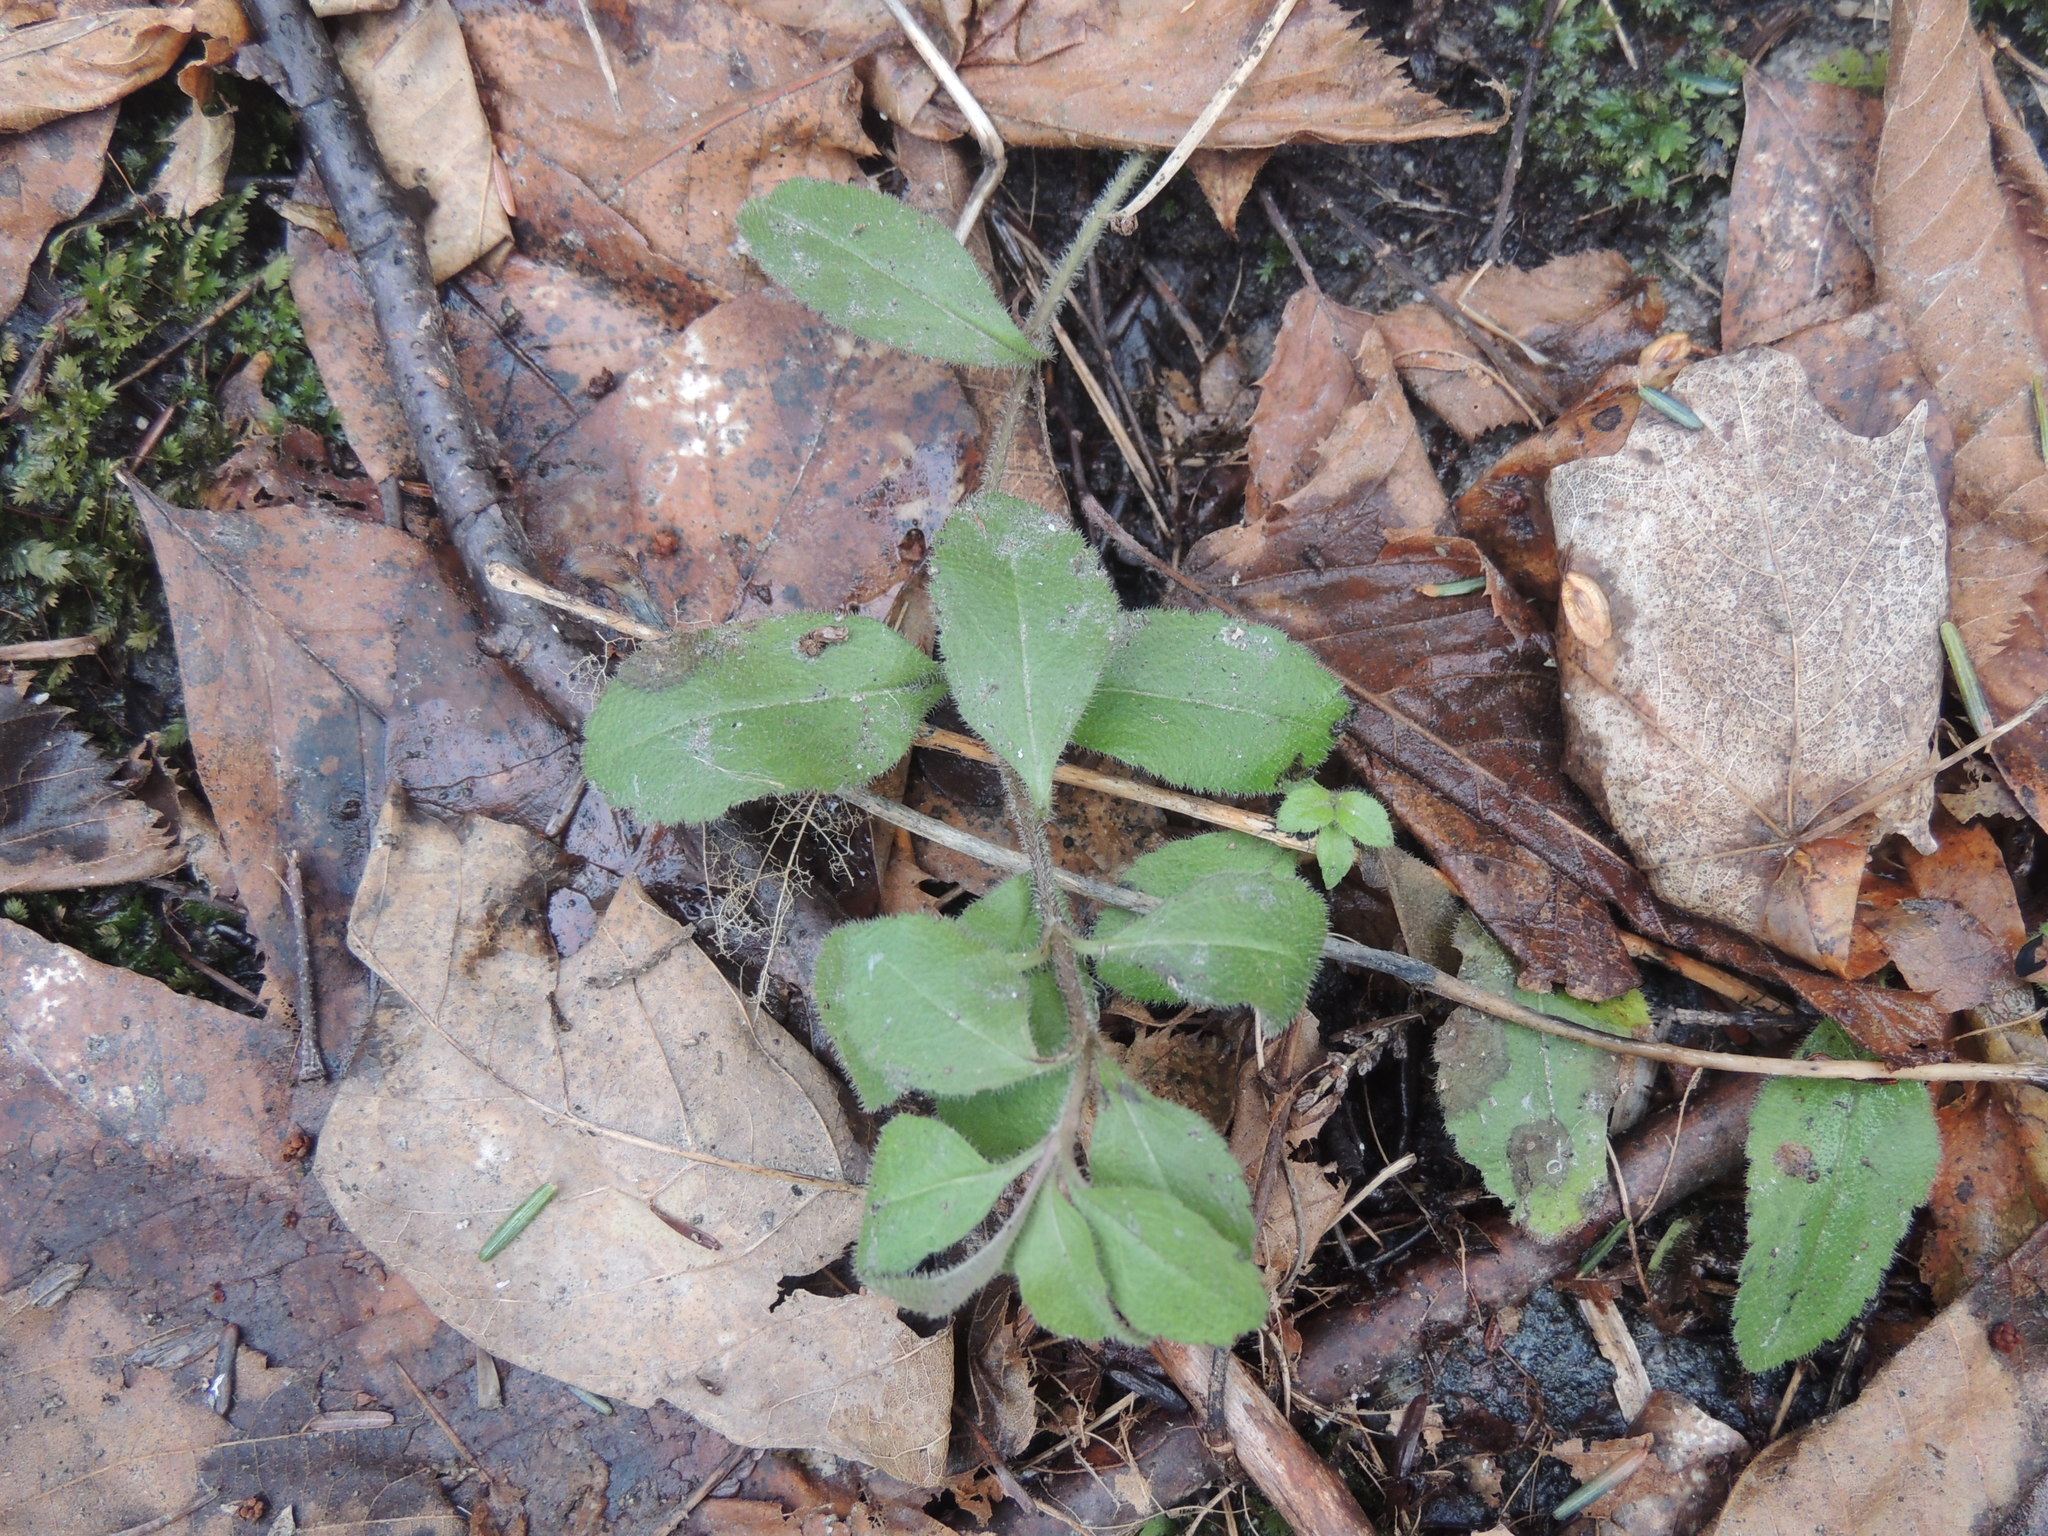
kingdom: Plantae
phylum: Tracheophyta
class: Magnoliopsida
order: Lamiales
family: Plantaginaceae
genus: Veronica
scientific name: Veronica officinalis
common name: Common speedwell
